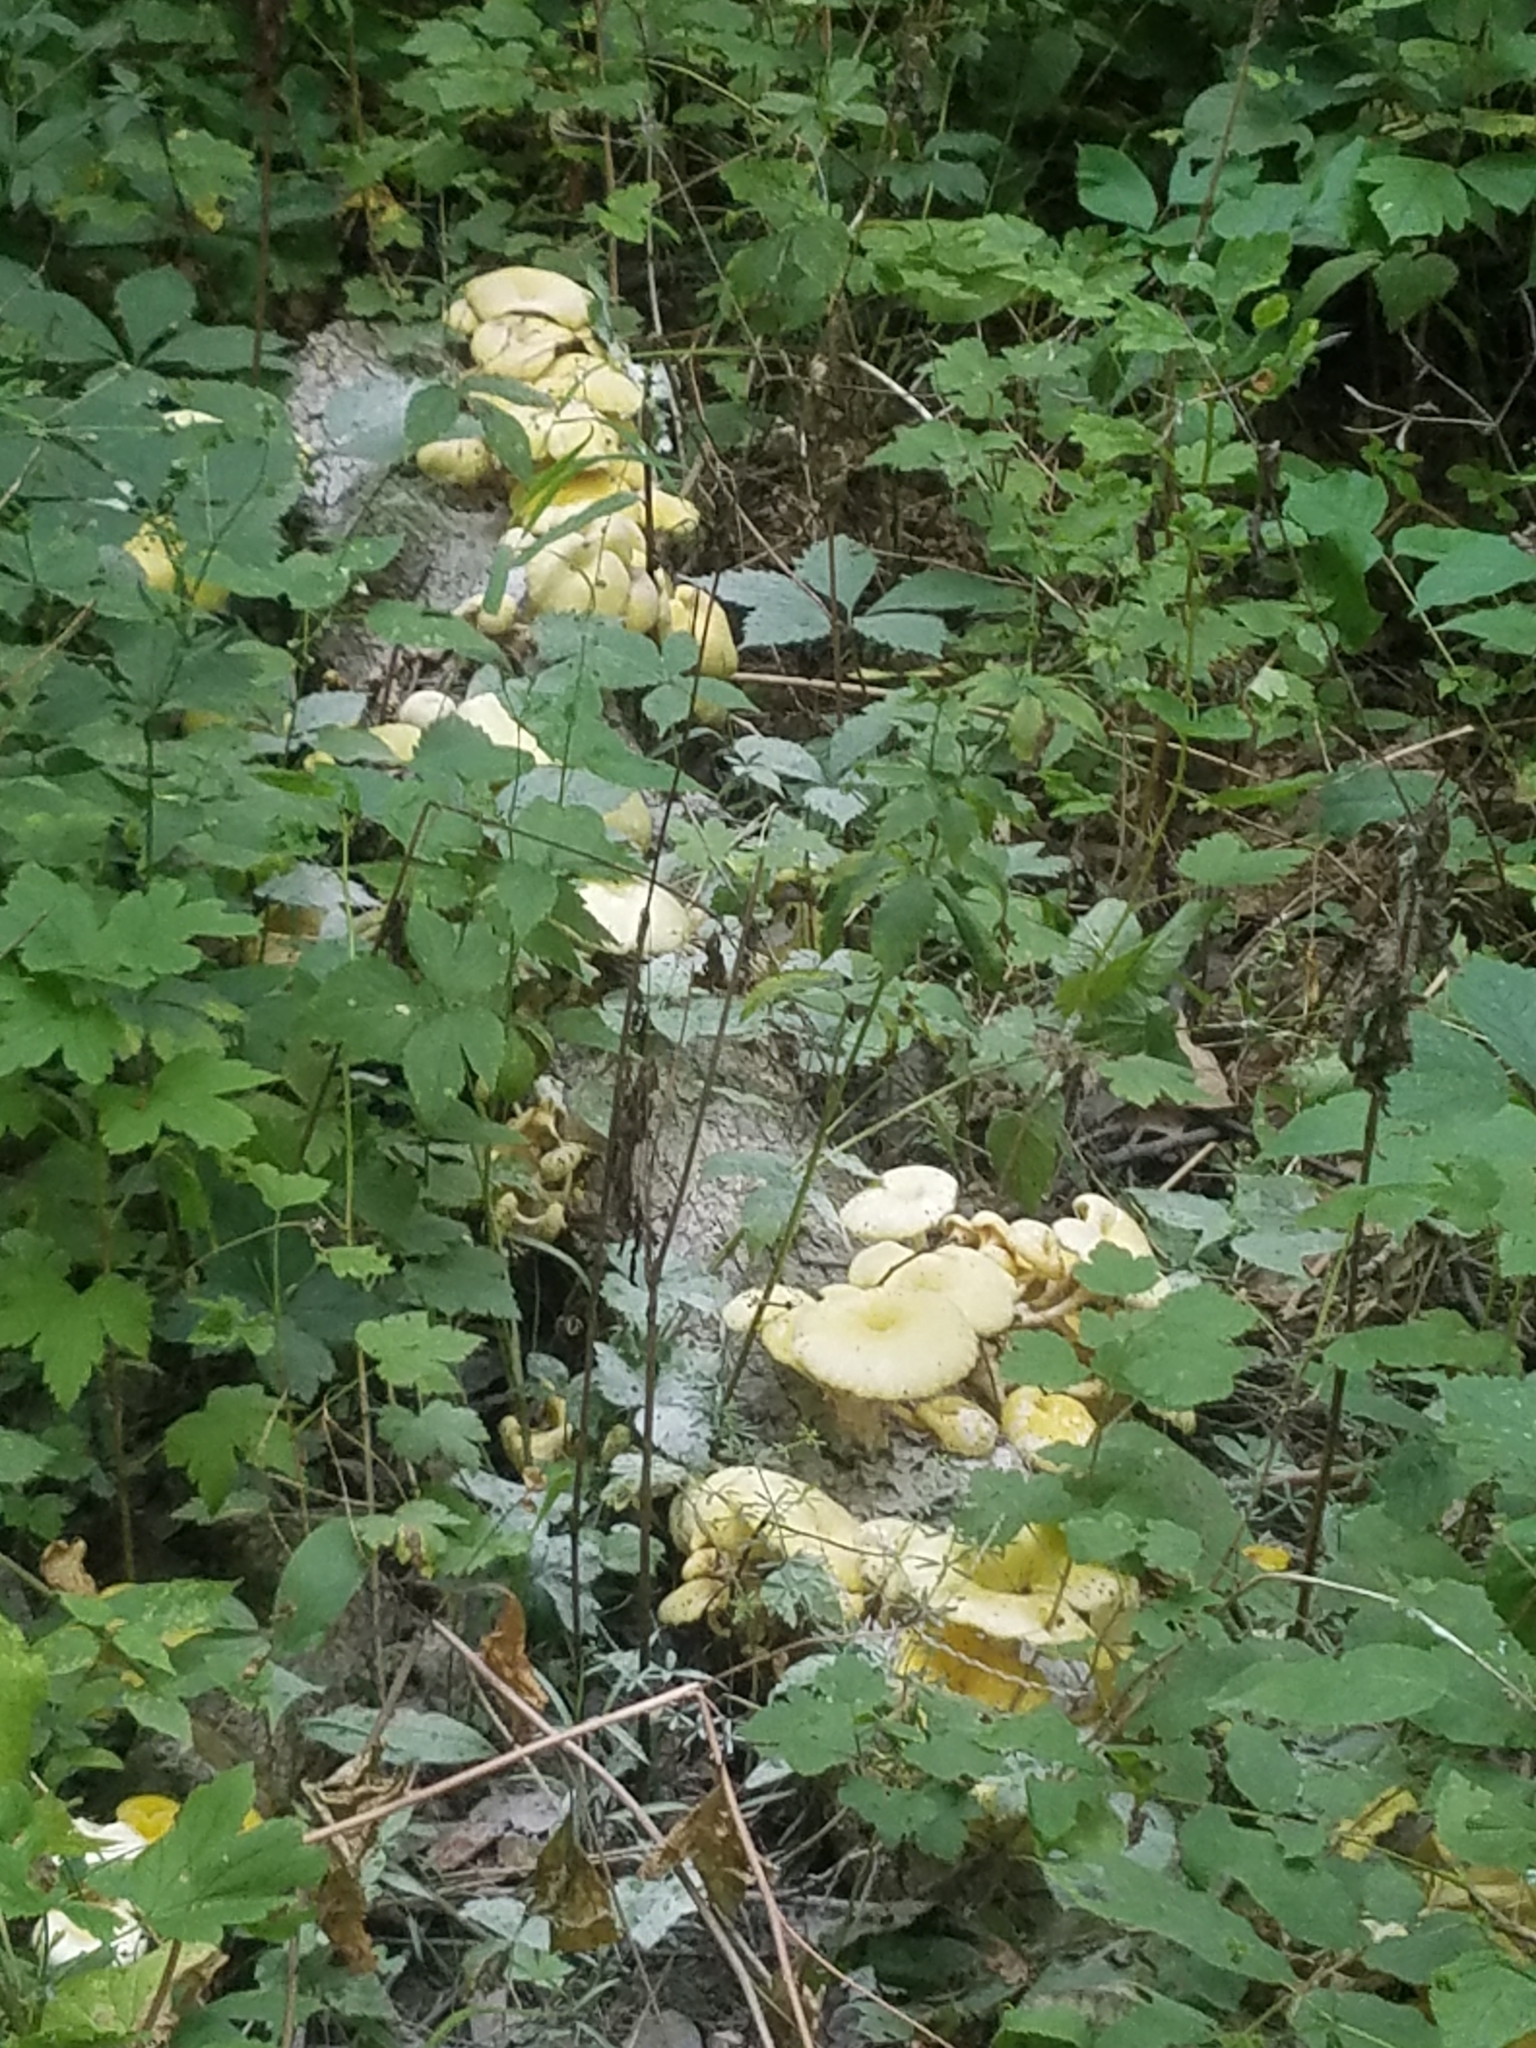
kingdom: Fungi
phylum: Basidiomycota
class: Agaricomycetes
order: Agaricales
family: Pleurotaceae
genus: Pleurotus
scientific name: Pleurotus citrinopileatus
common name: Golden oyster mushroom
